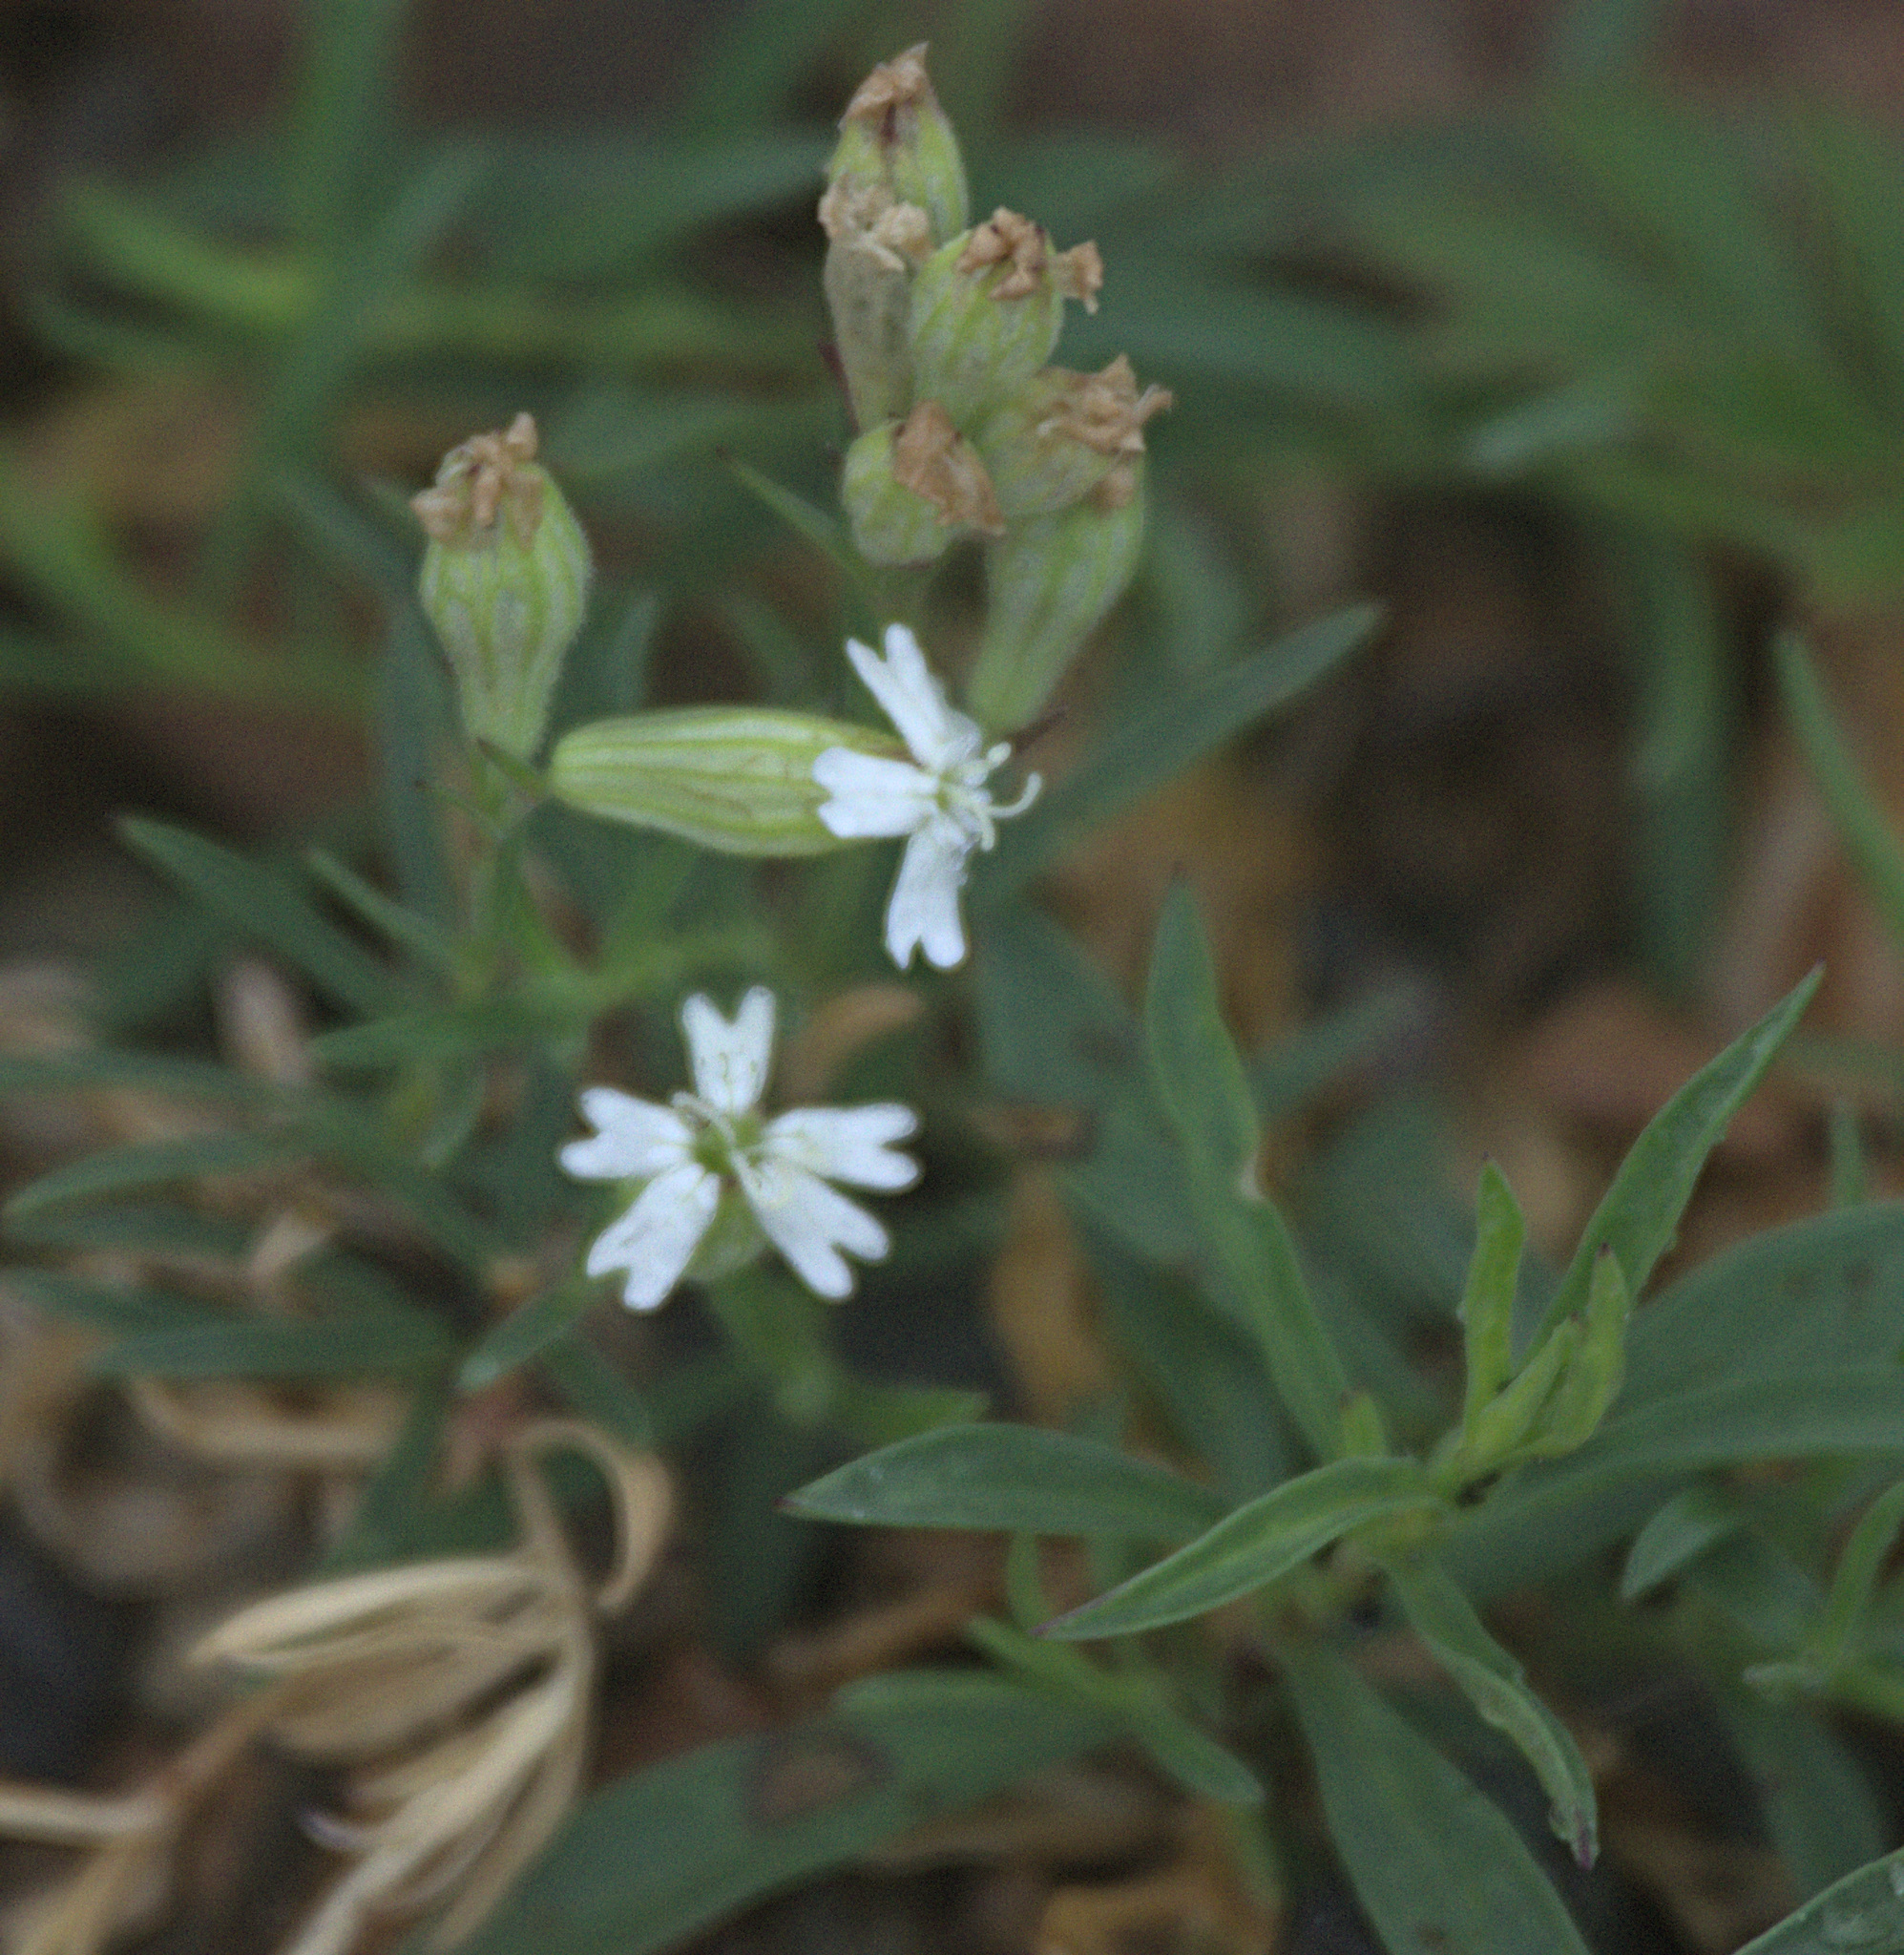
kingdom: Plantae
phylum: Tracheophyta
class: Magnoliopsida
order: Caryophyllales
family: Caryophyllaceae
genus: Silene
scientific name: Silene amoena
